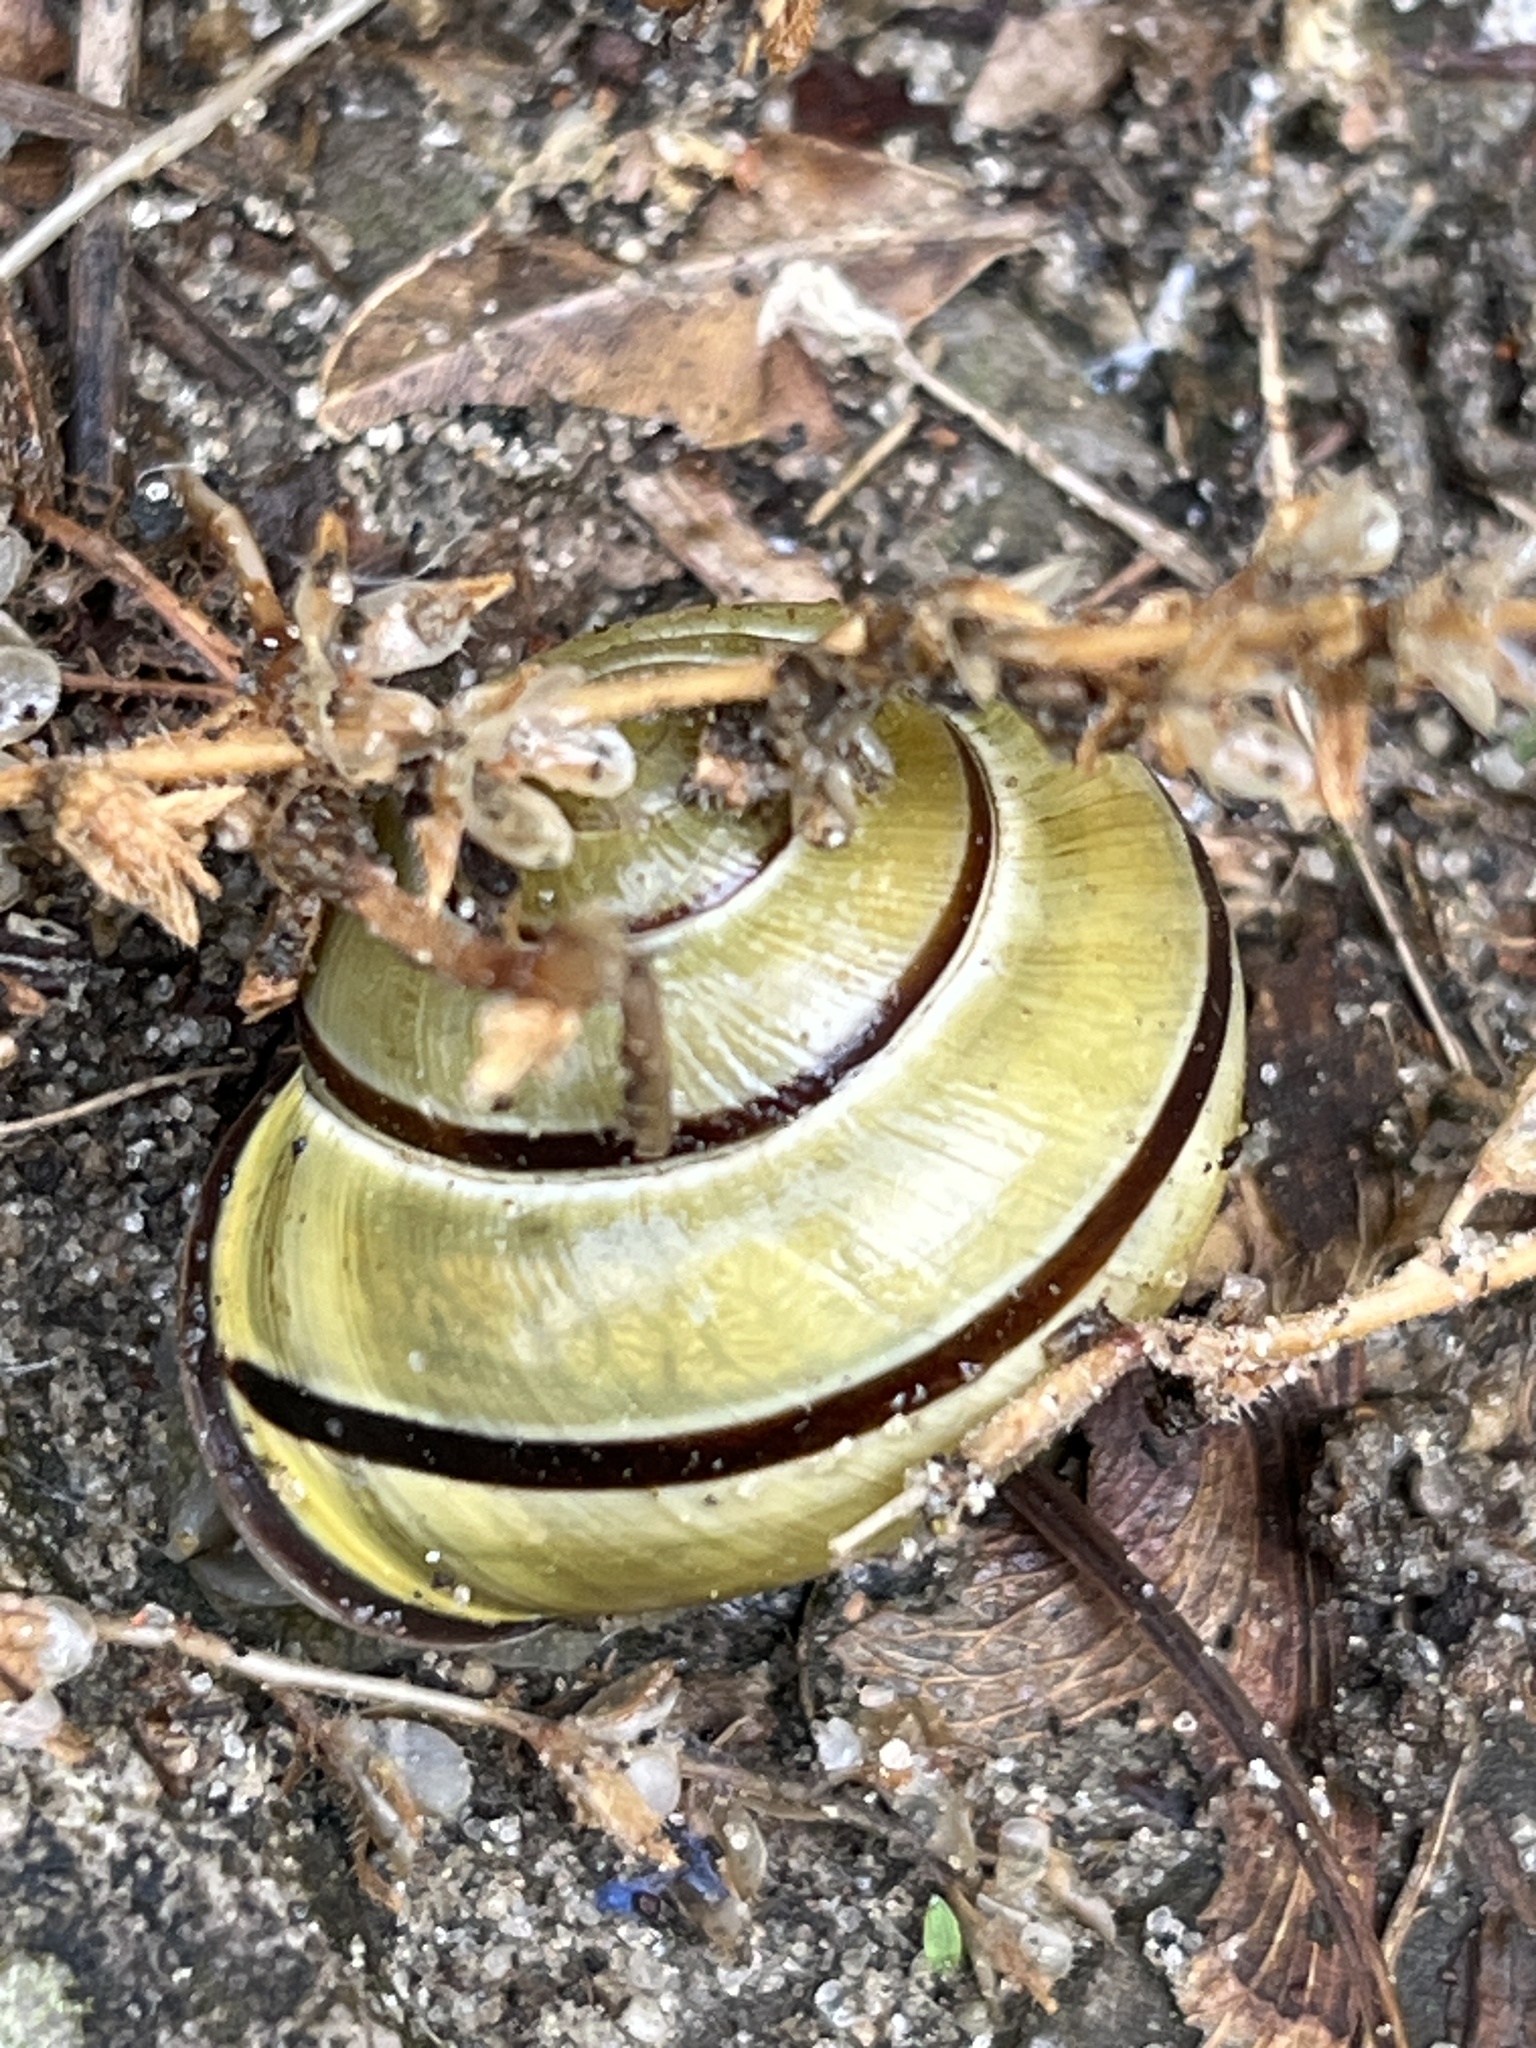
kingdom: Animalia
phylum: Mollusca
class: Gastropoda
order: Stylommatophora
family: Helicidae
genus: Cepaea
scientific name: Cepaea nemoralis
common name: Grovesnail
